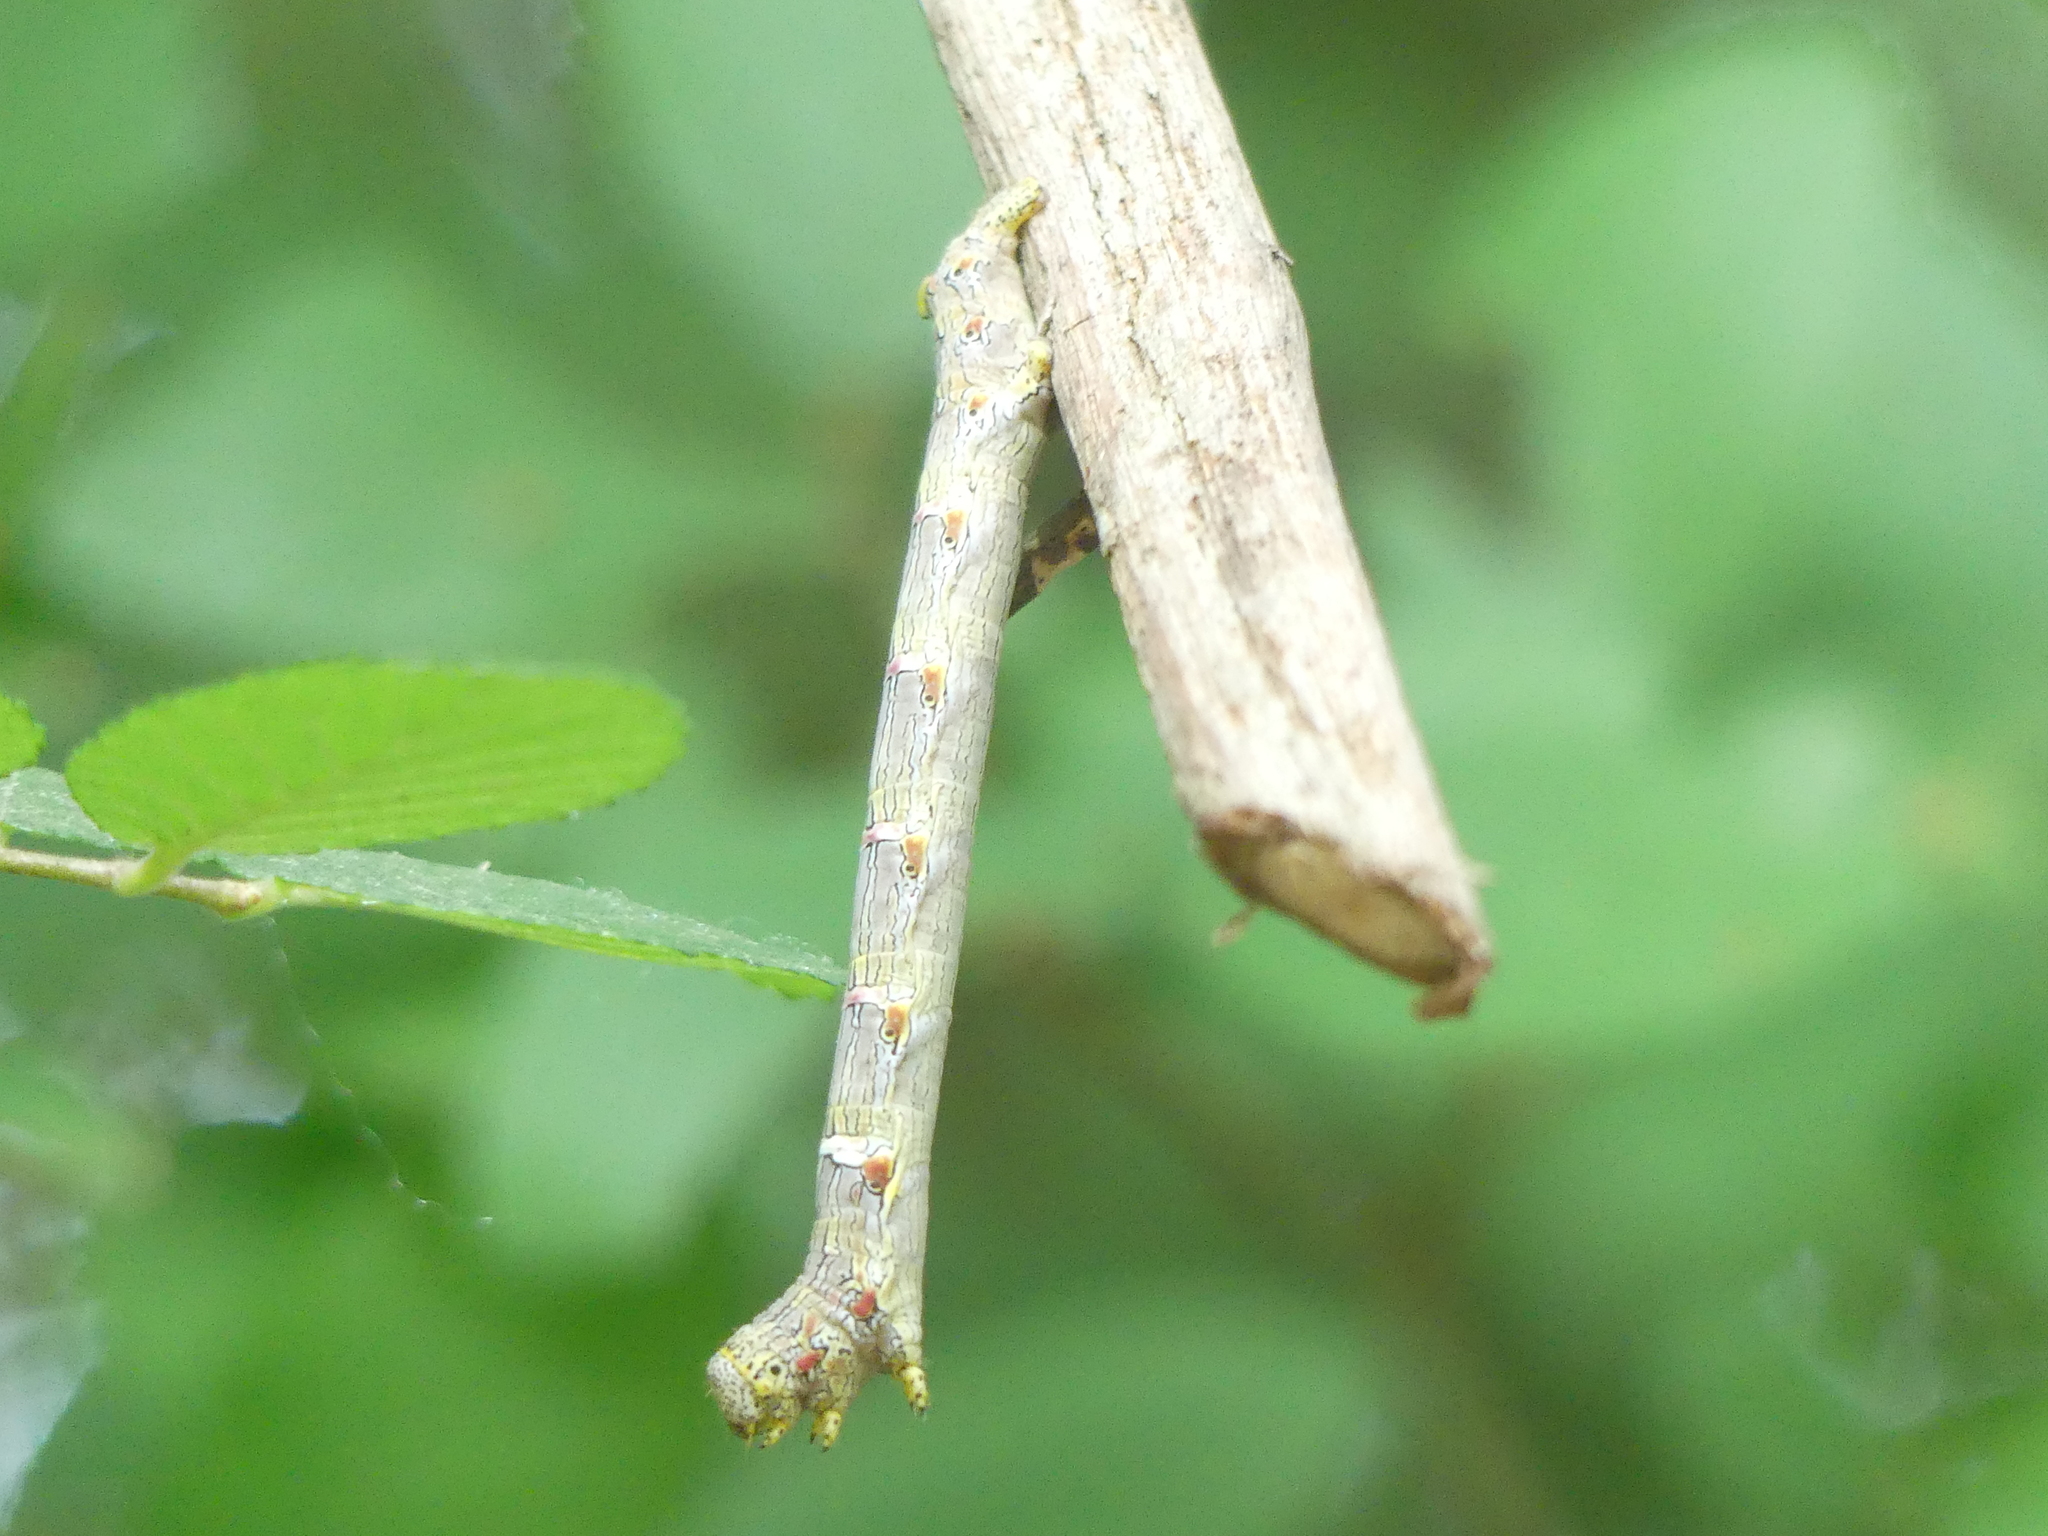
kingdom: Animalia
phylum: Arthropoda
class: Insecta
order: Lepidoptera
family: Geometridae
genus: Lycia
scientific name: Lycia ypsilon
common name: Wooly gray
